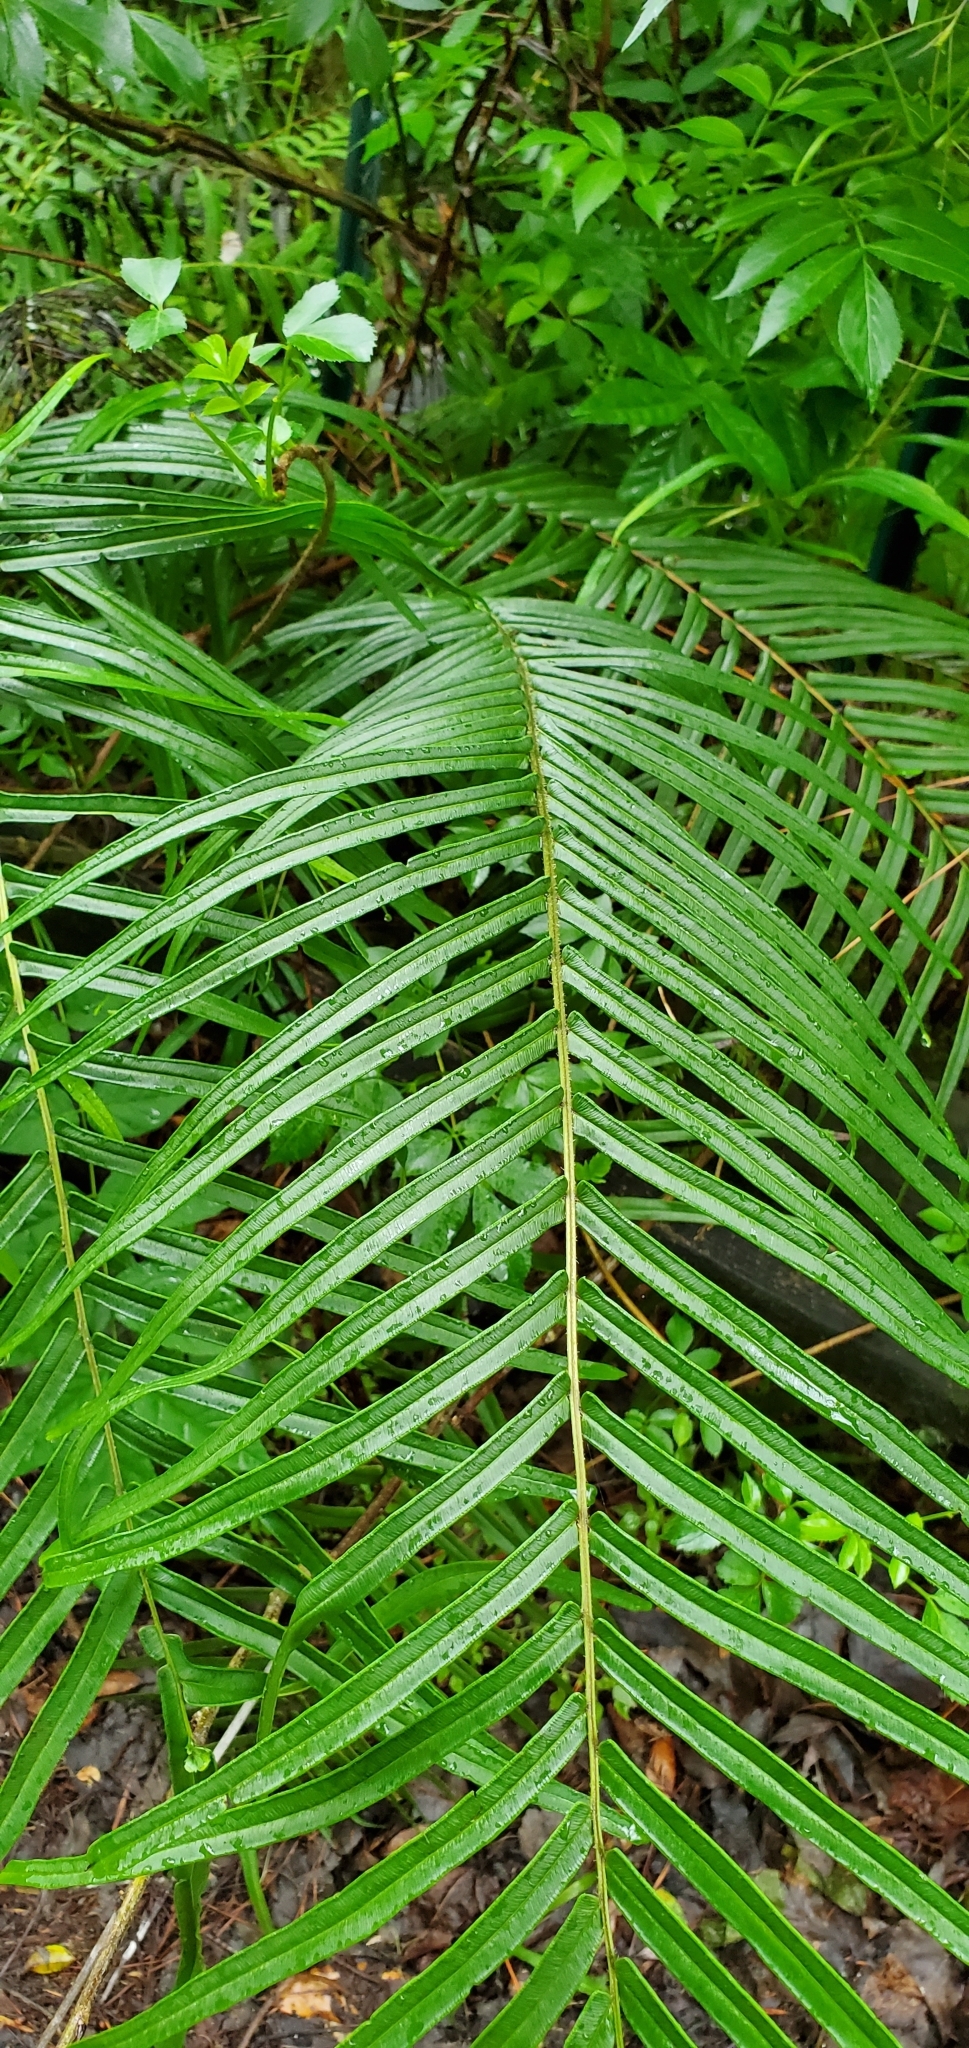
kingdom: Plantae
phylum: Tracheophyta
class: Polypodiopsida
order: Polypodiales
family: Pteridaceae
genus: Pteris
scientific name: Pteris vittata
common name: Ladder brake
